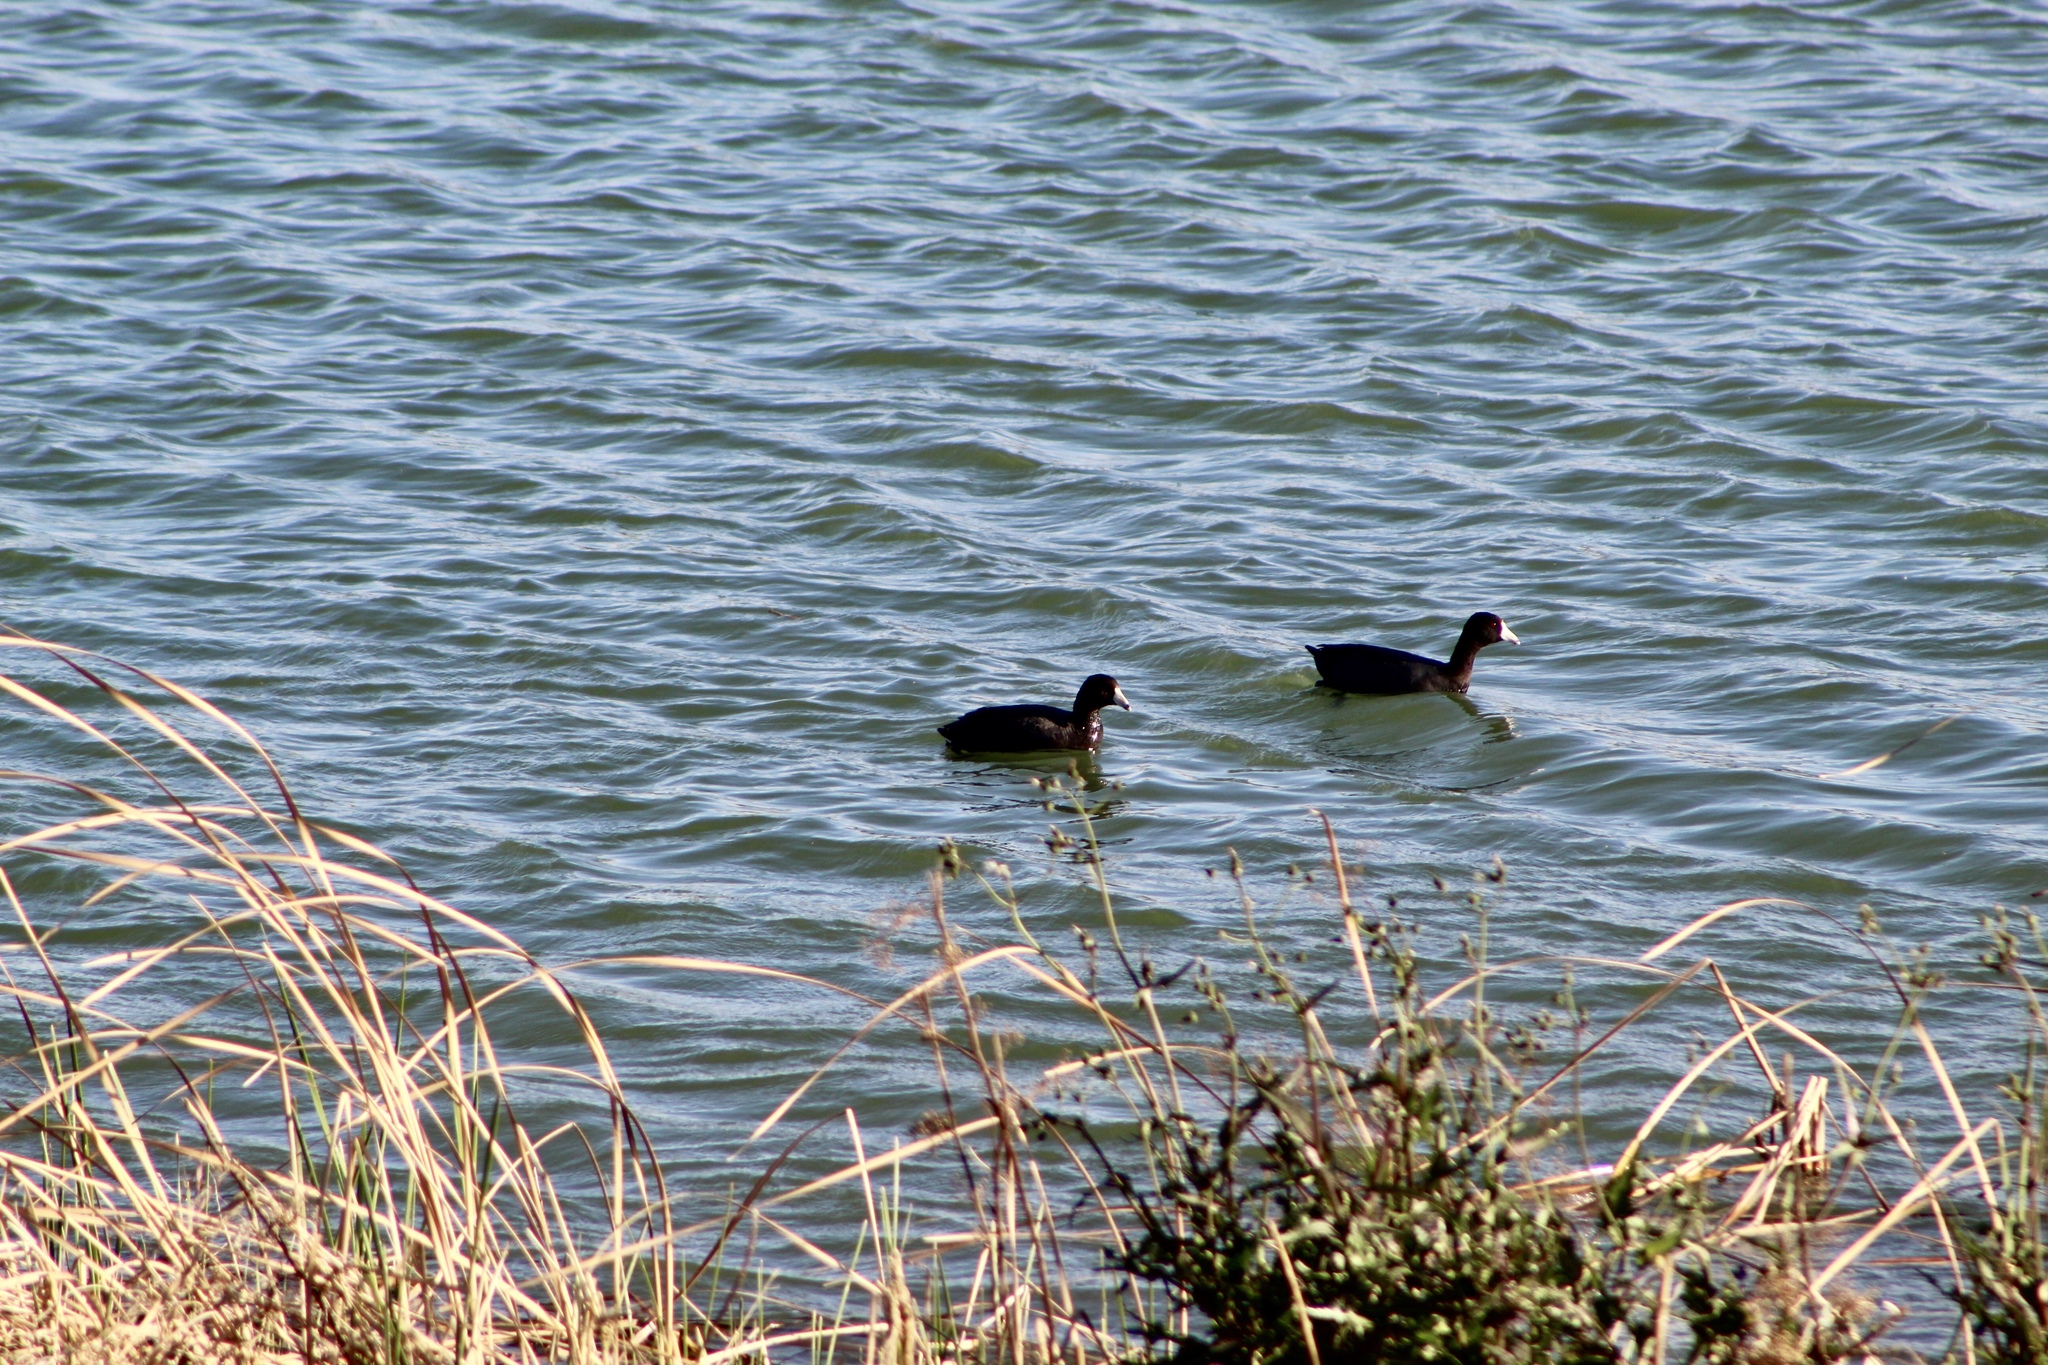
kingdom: Animalia
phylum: Chordata
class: Aves
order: Gruiformes
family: Rallidae
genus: Fulica
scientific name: Fulica americana
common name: American coot
